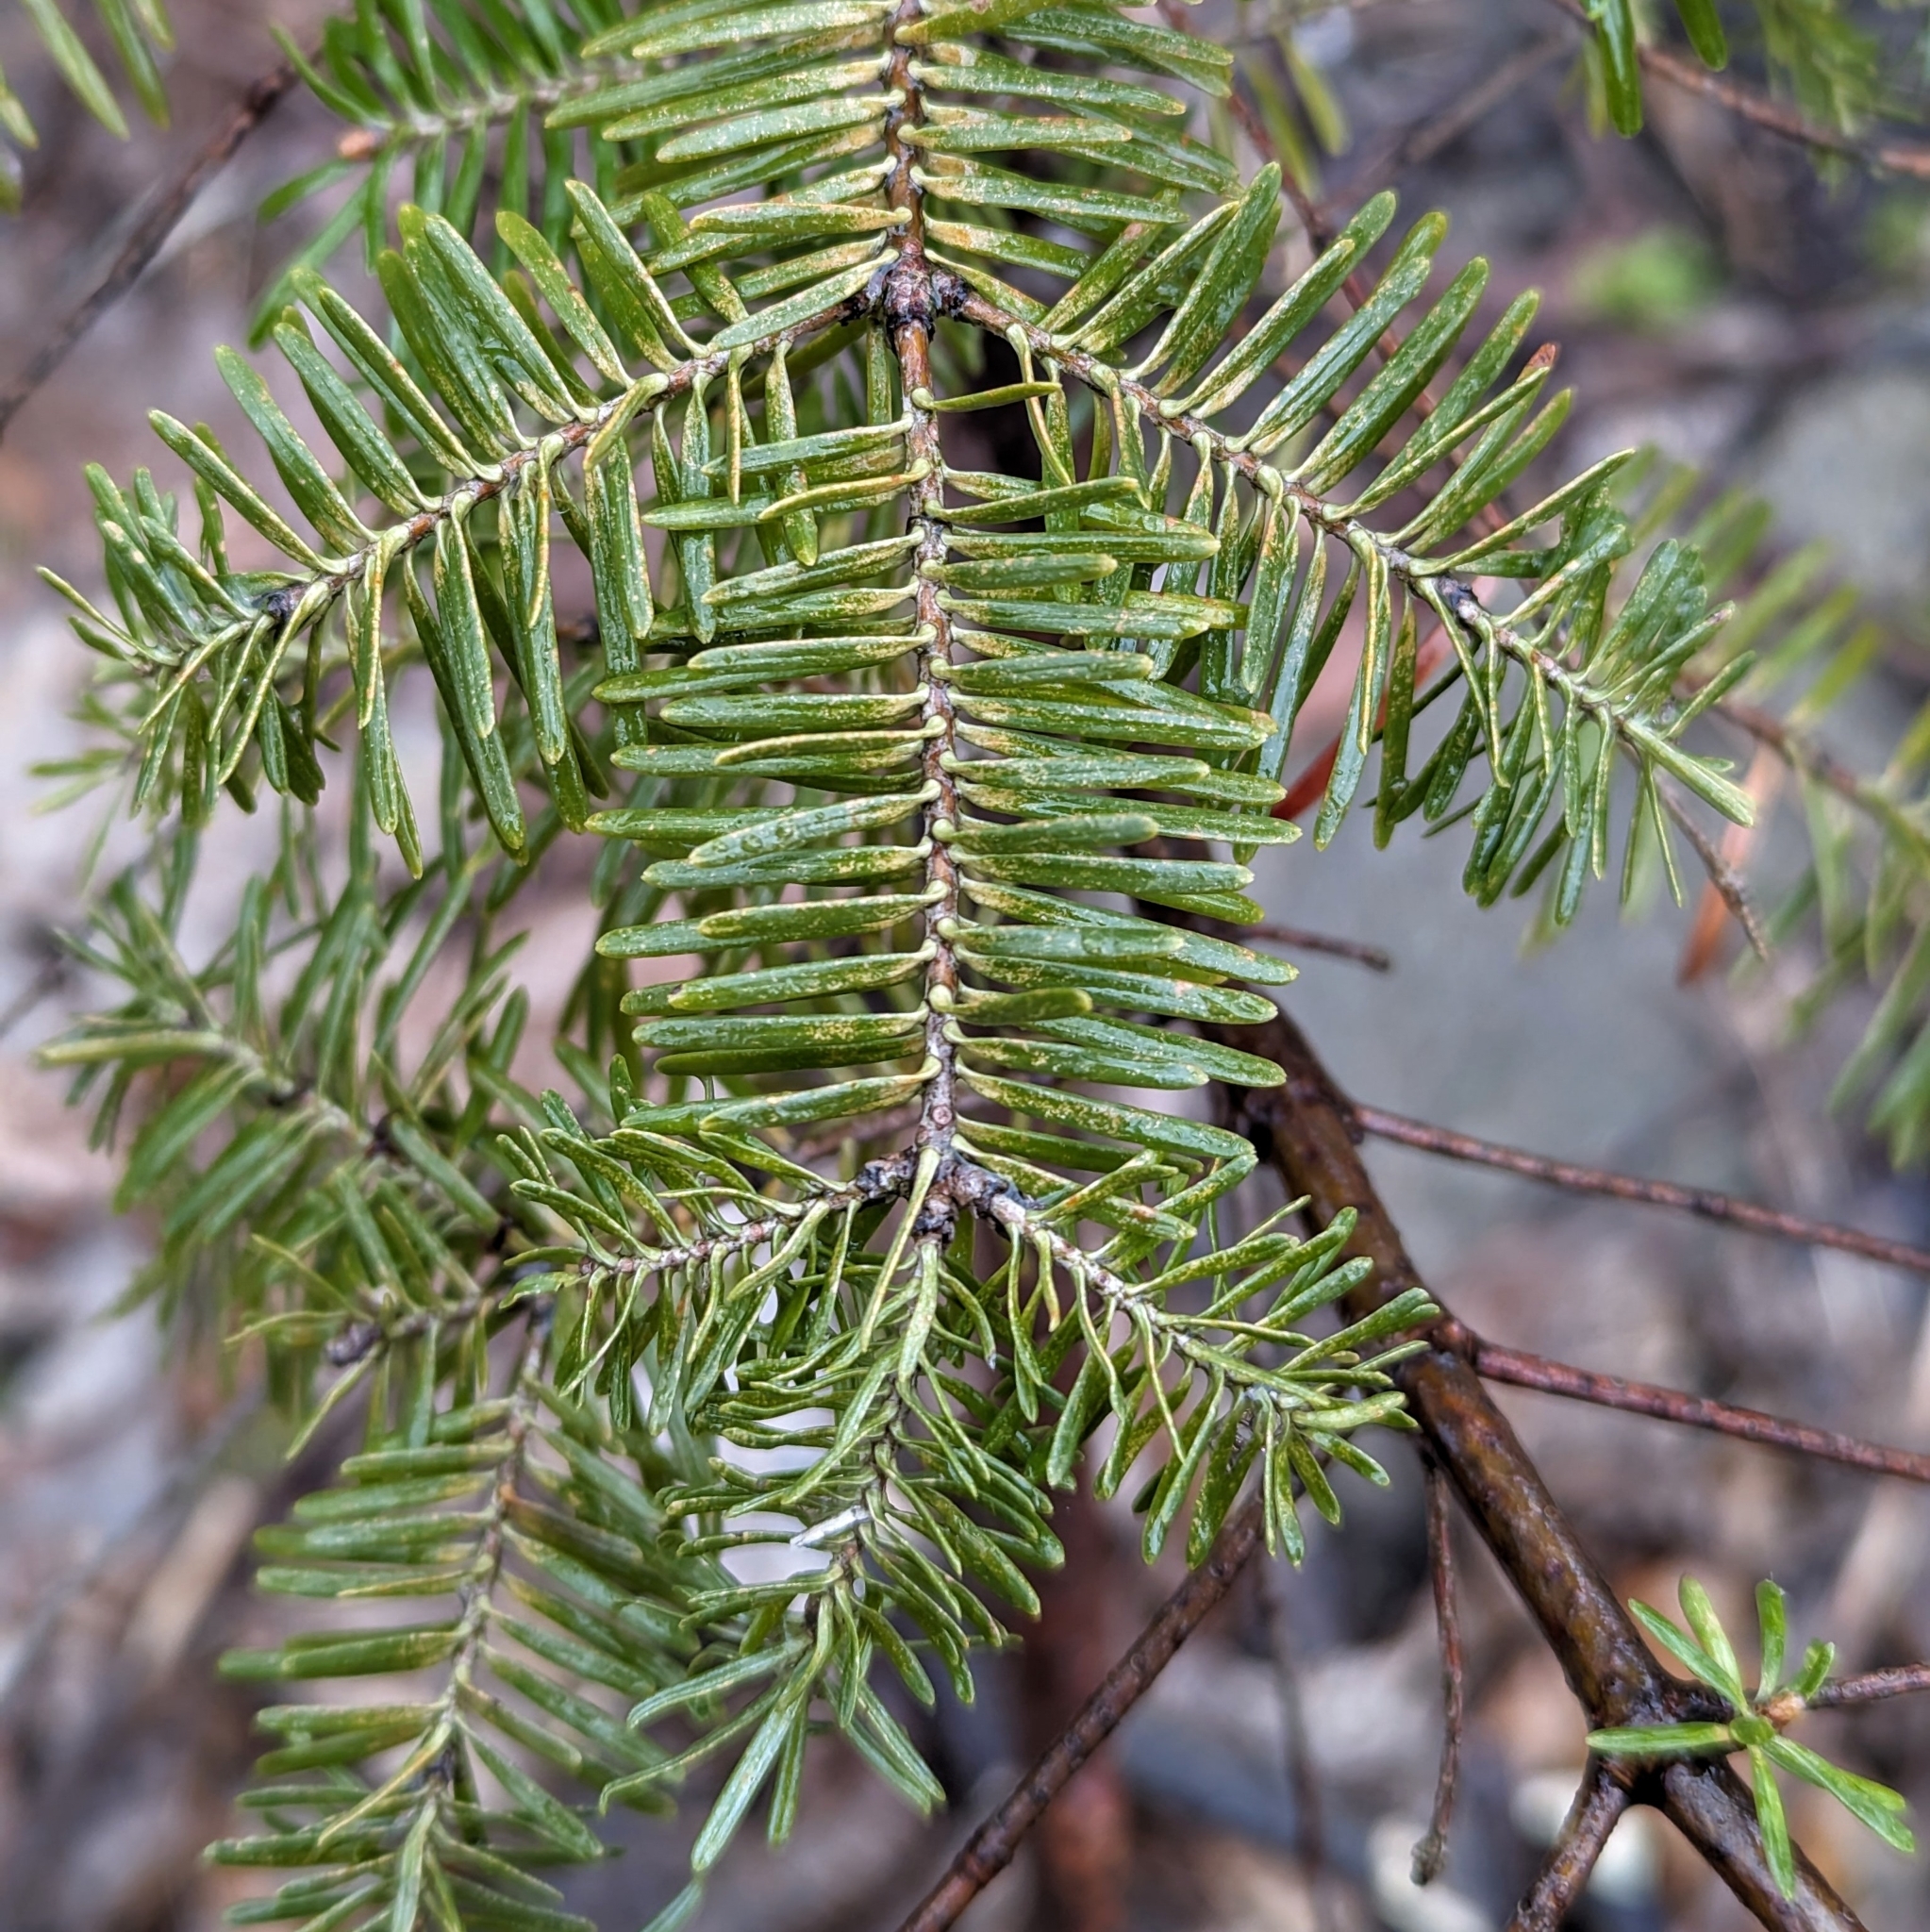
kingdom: Plantae
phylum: Tracheophyta
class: Pinopsida
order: Pinales
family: Pinaceae
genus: Abies
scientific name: Abies balsamea
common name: Balsam fir
